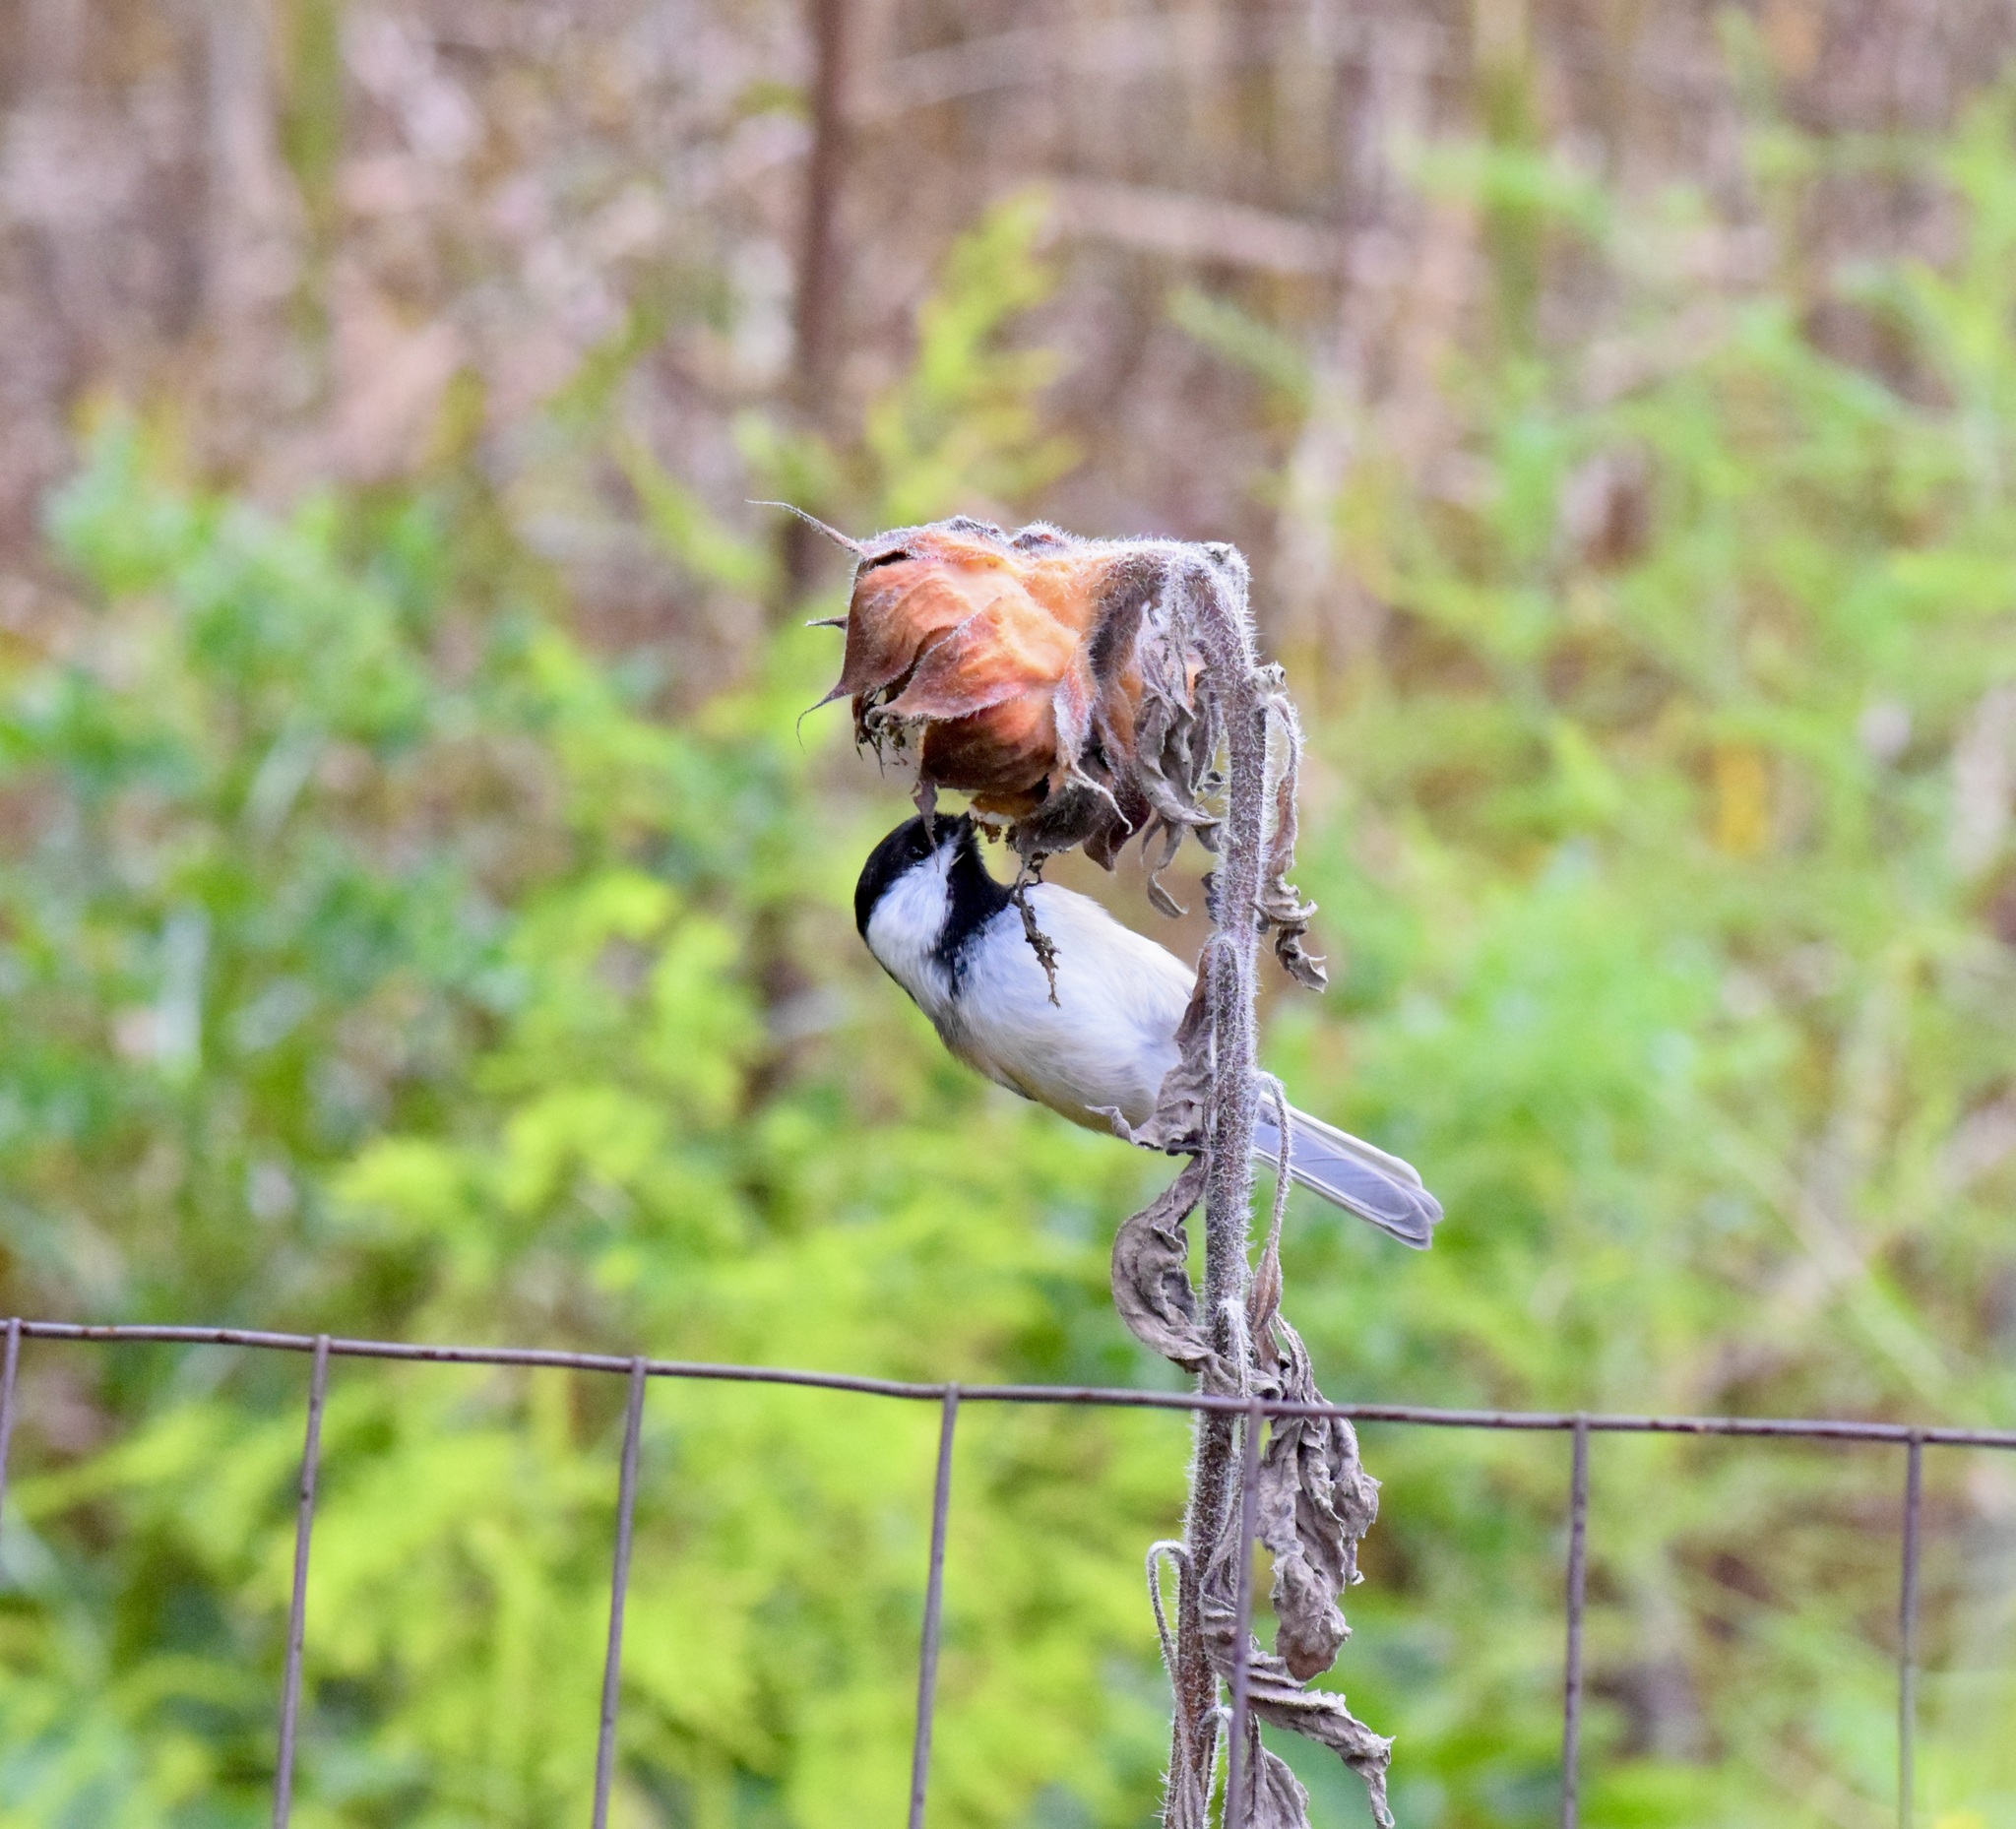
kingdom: Animalia
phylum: Chordata
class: Aves
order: Passeriformes
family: Paridae
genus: Poecile
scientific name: Poecile atricapillus
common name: Black-capped chickadee
